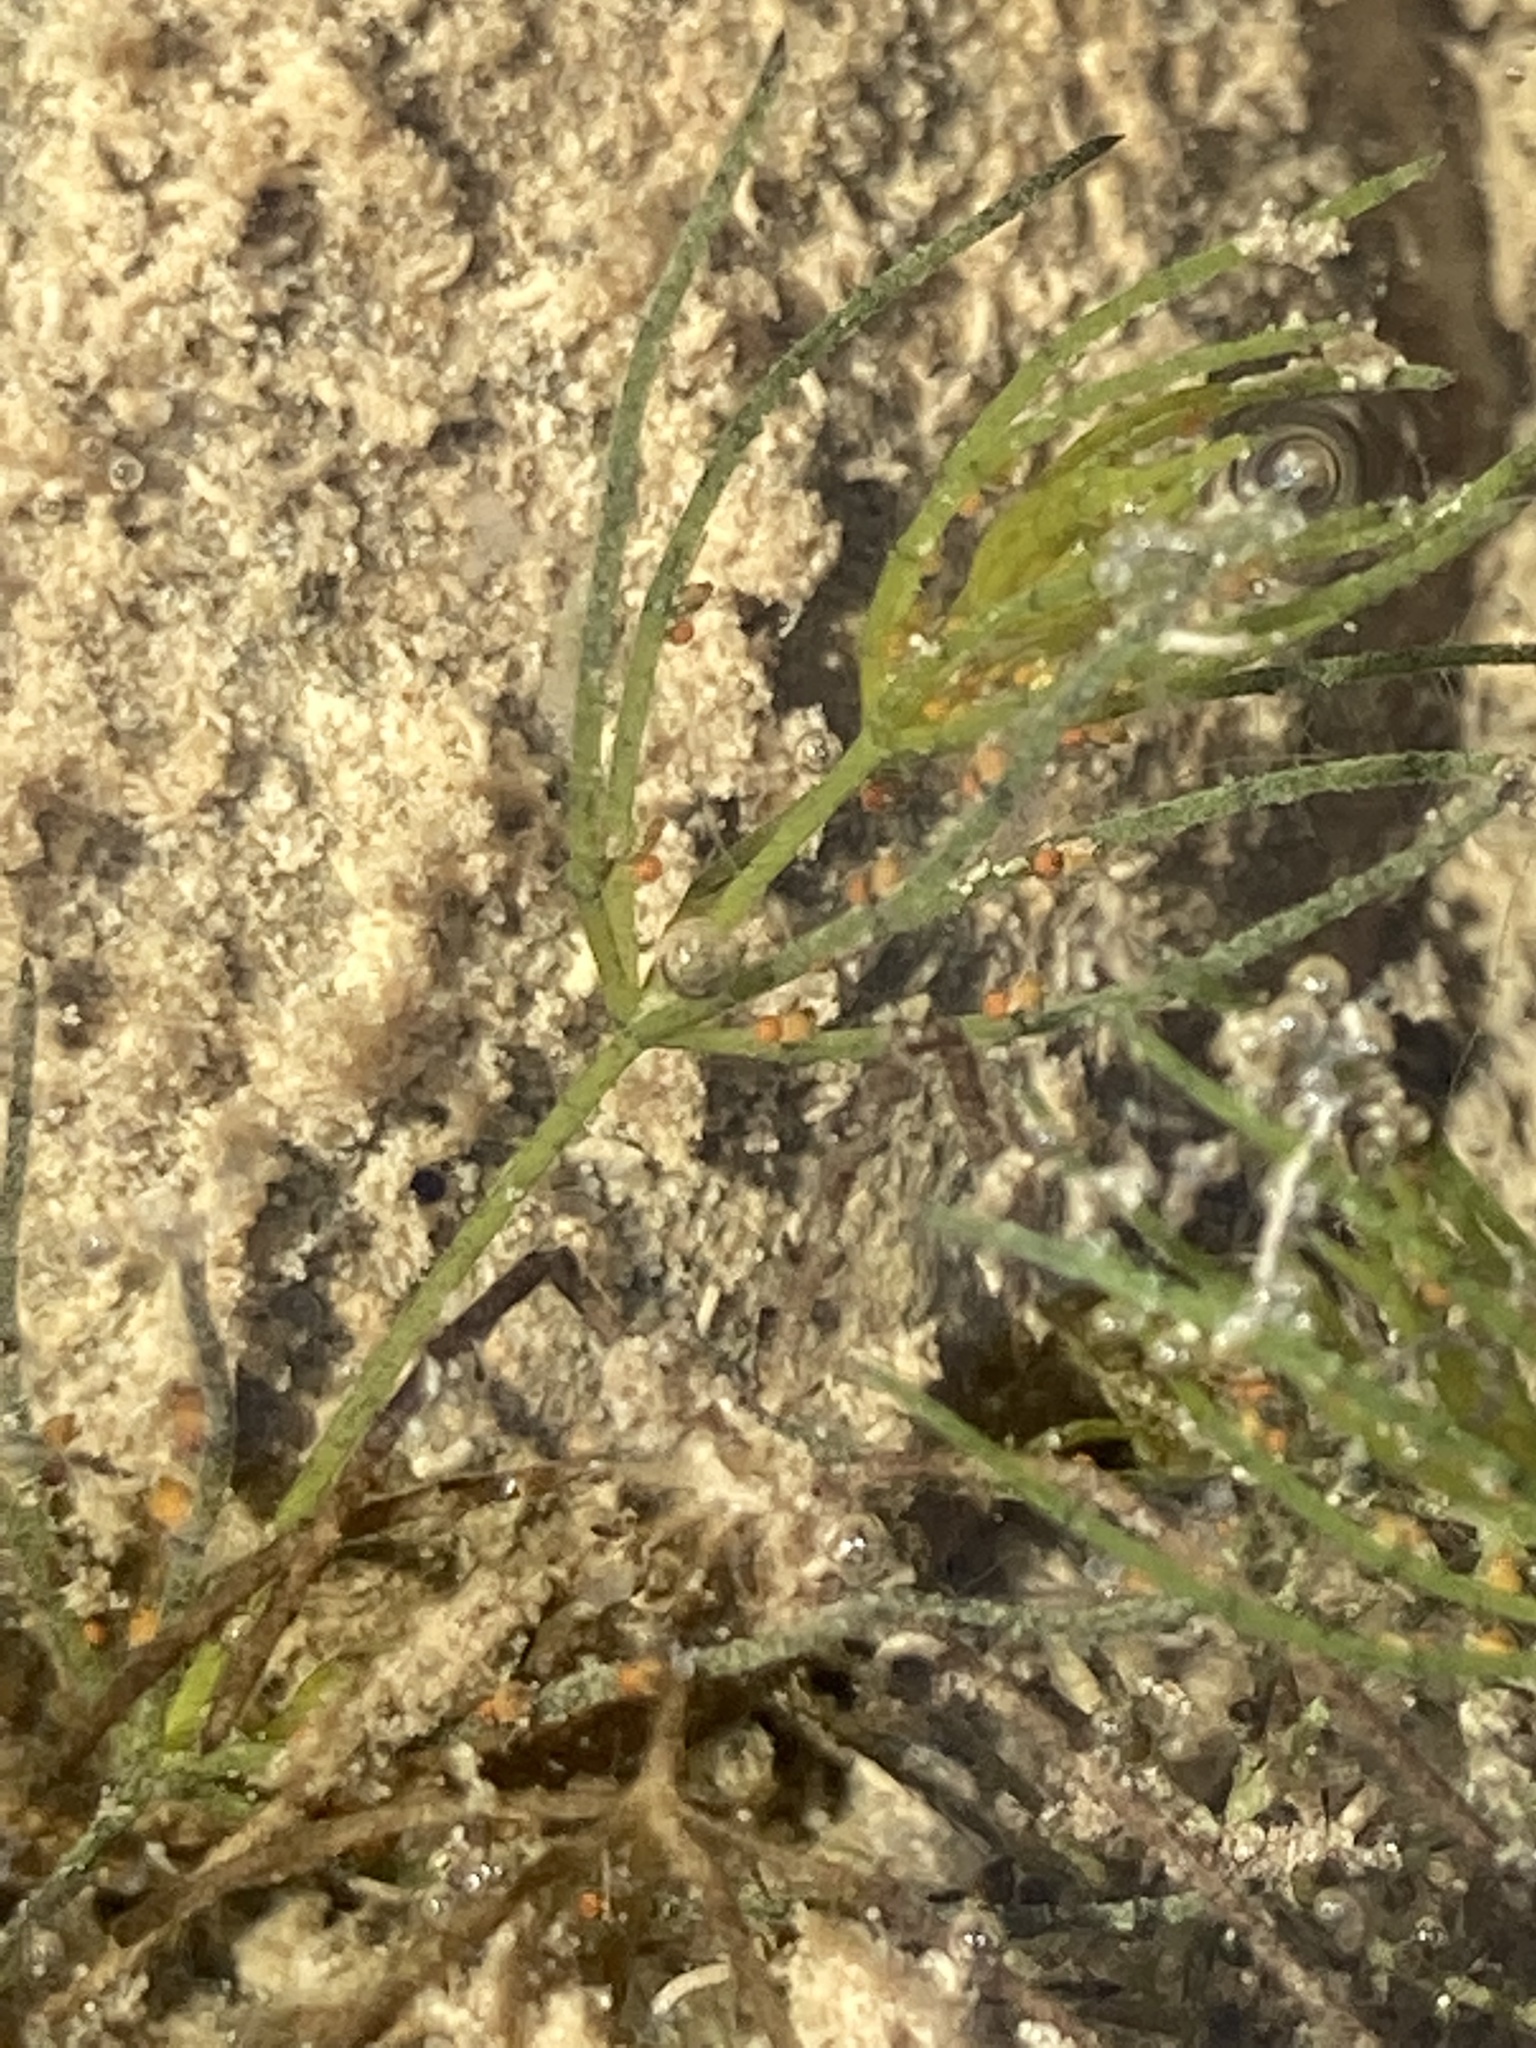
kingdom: Plantae
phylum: Charophyta
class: Charophyceae
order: Charales
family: Characeae
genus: Chara
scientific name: Chara globularis
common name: Fragile stonewort
